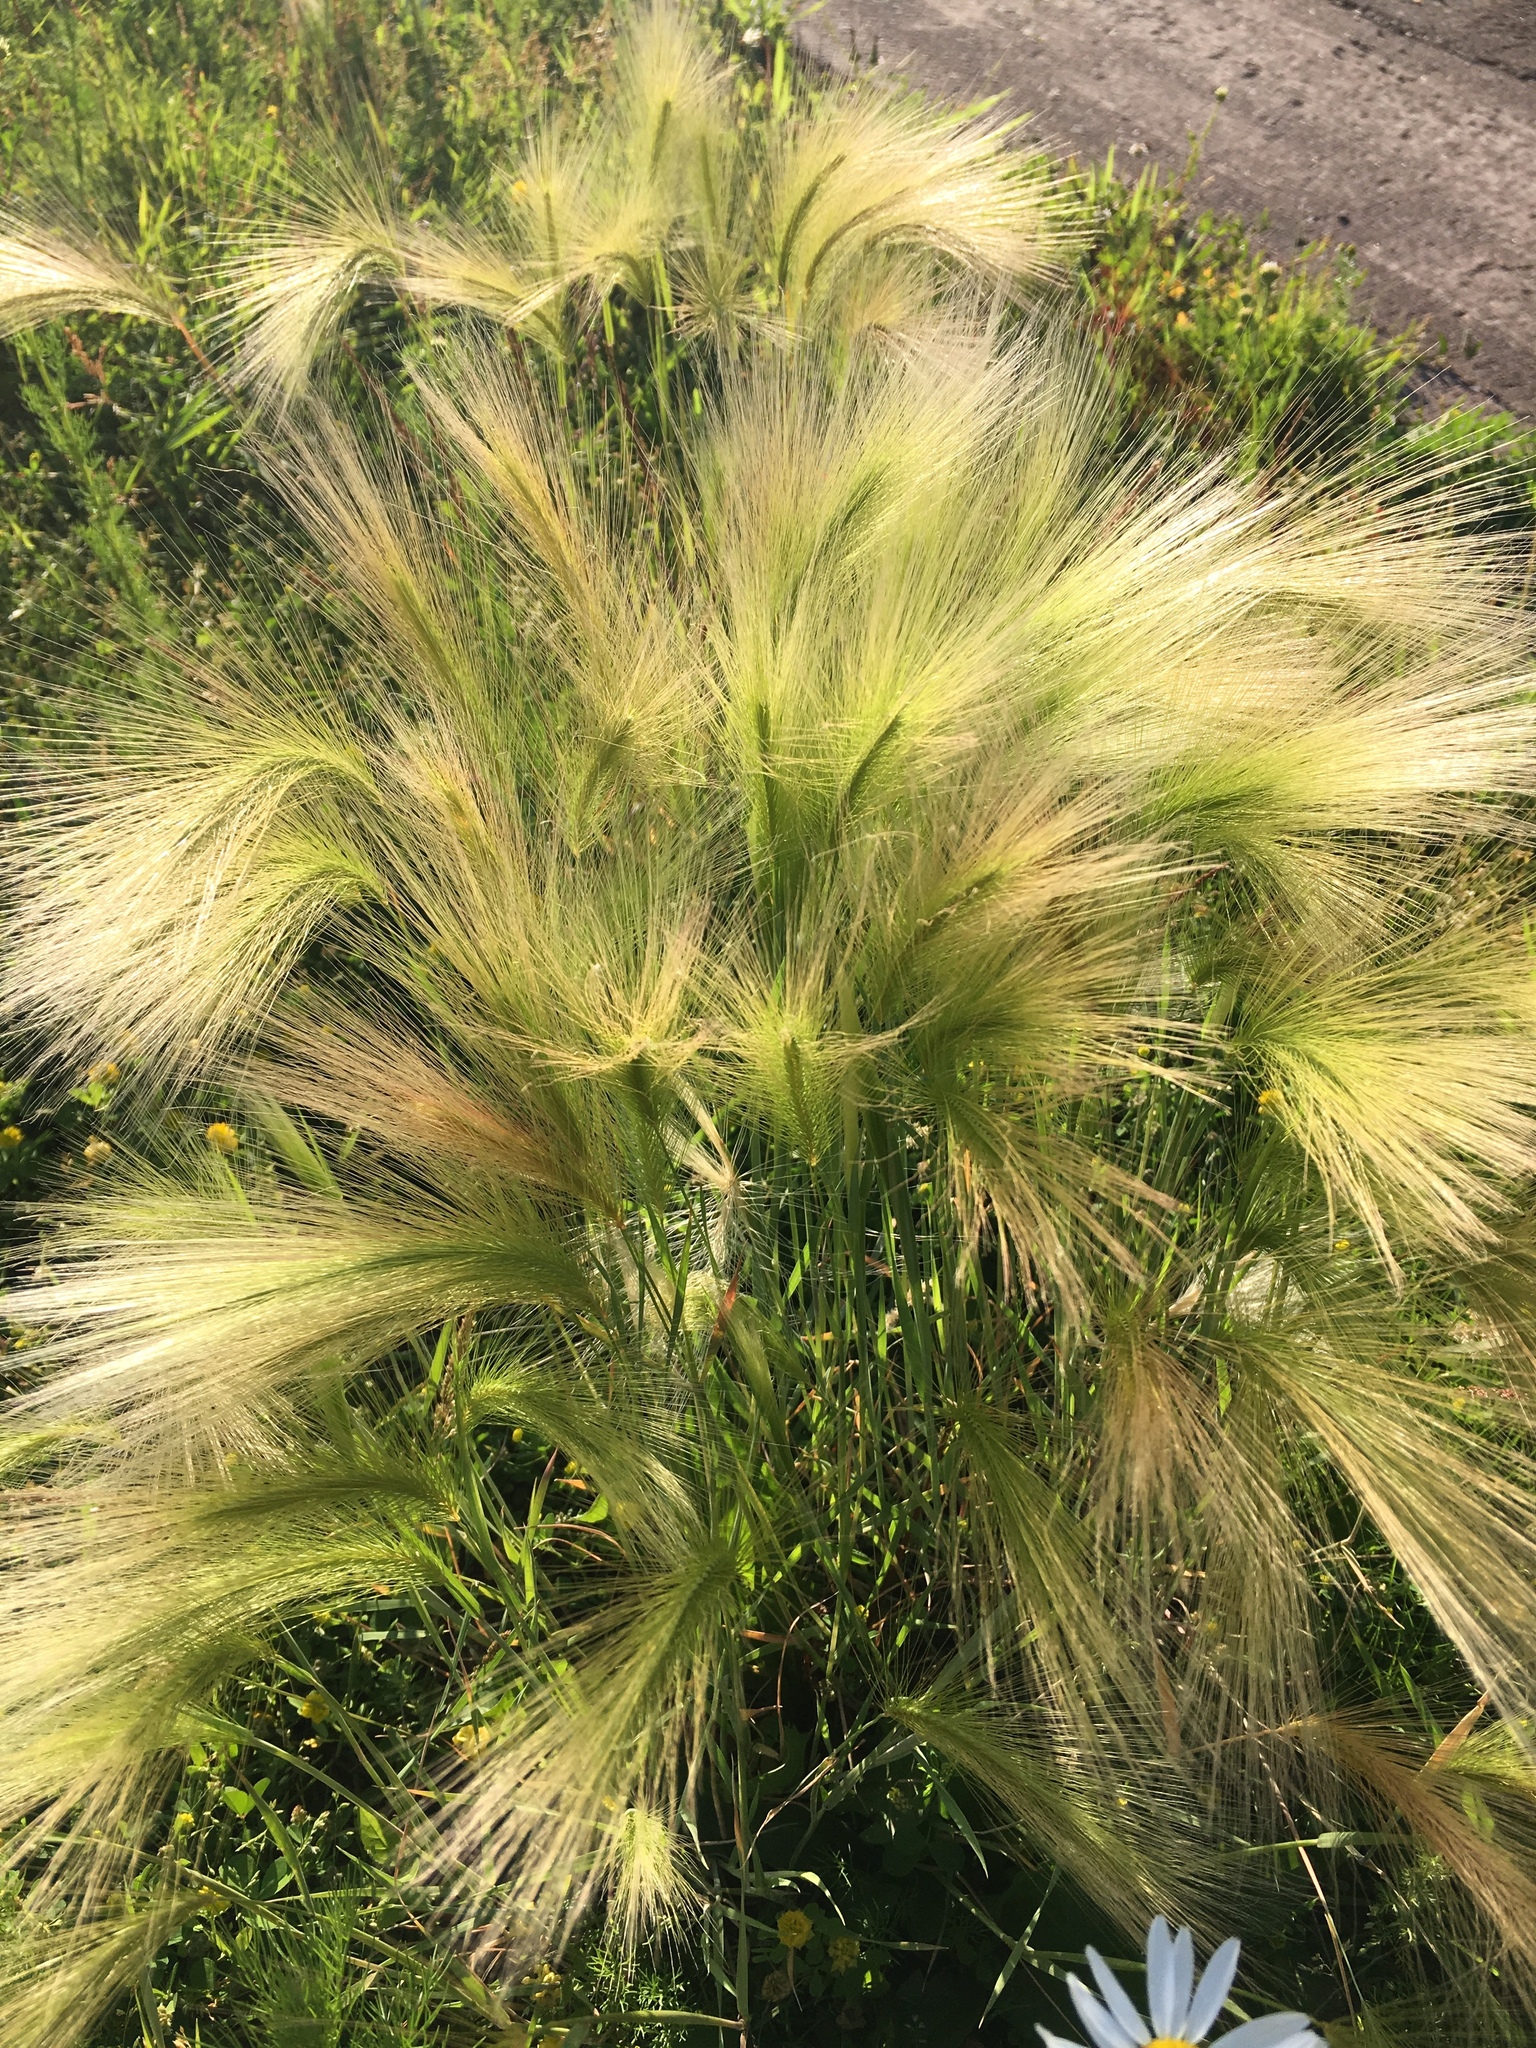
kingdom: Plantae
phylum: Tracheophyta
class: Liliopsida
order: Poales
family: Poaceae
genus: Hordeum
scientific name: Hordeum jubatum
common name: Foxtail barley
